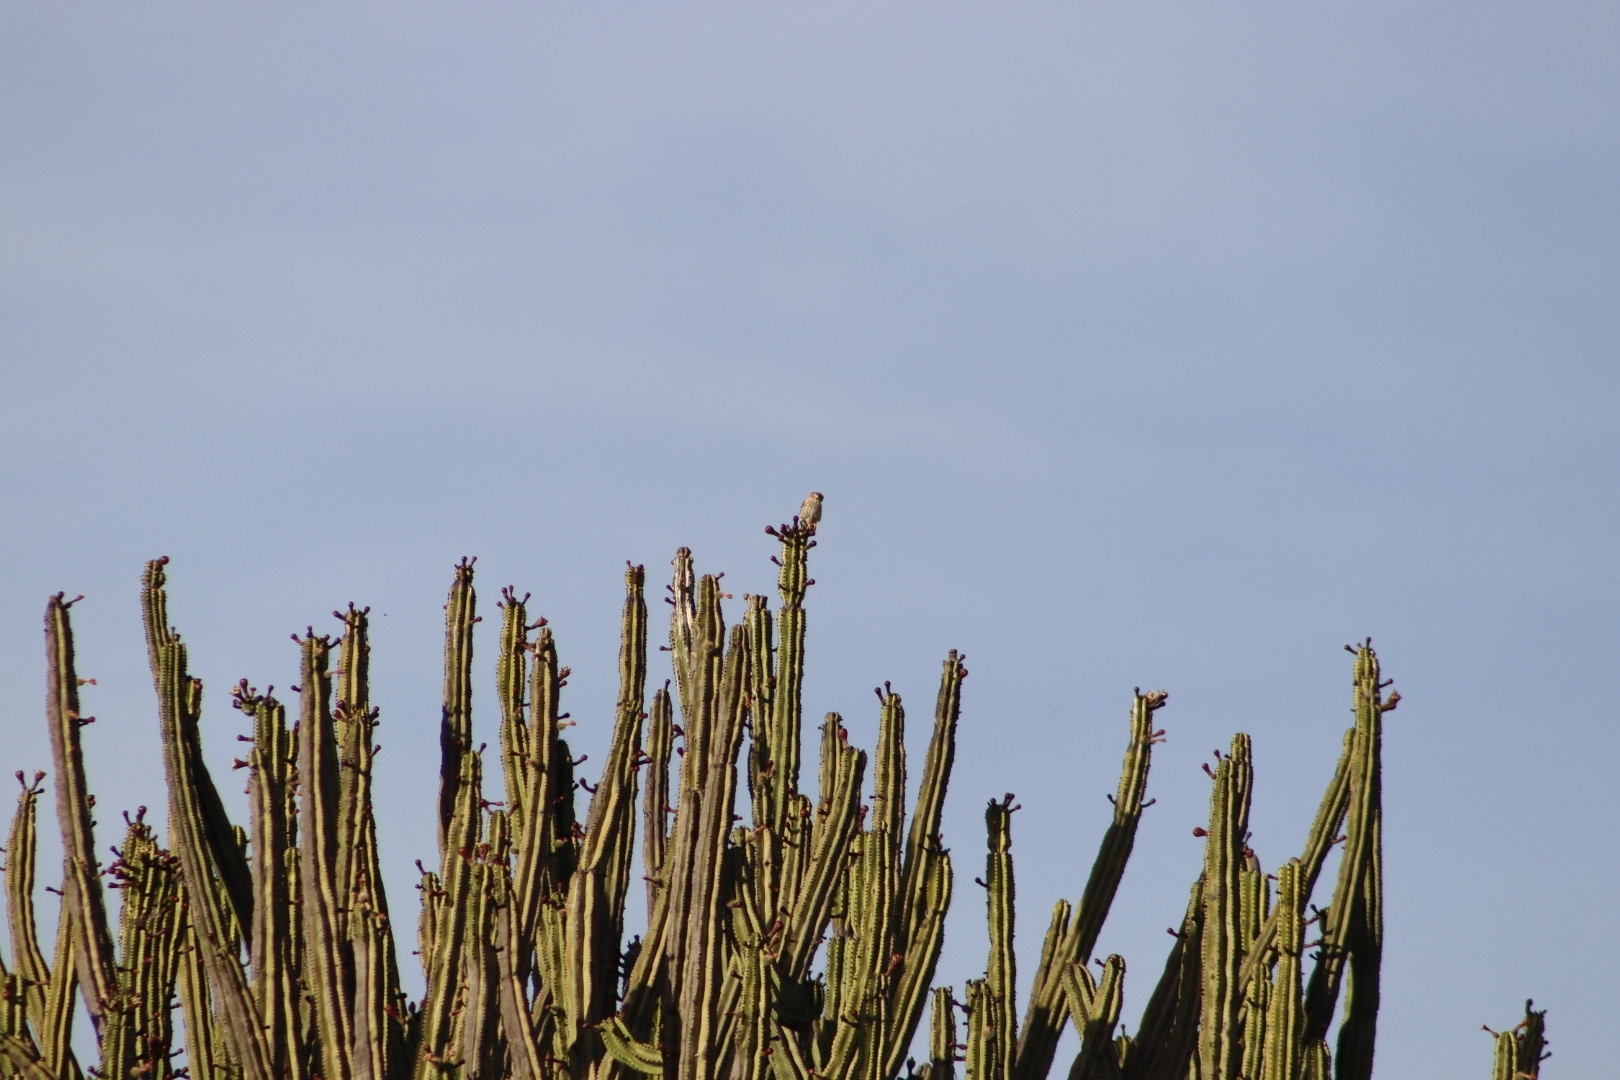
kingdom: Animalia
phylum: Chordata
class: Aves
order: Falconiformes
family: Falconidae
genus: Falco
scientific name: Falco sparverius
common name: American kestrel
